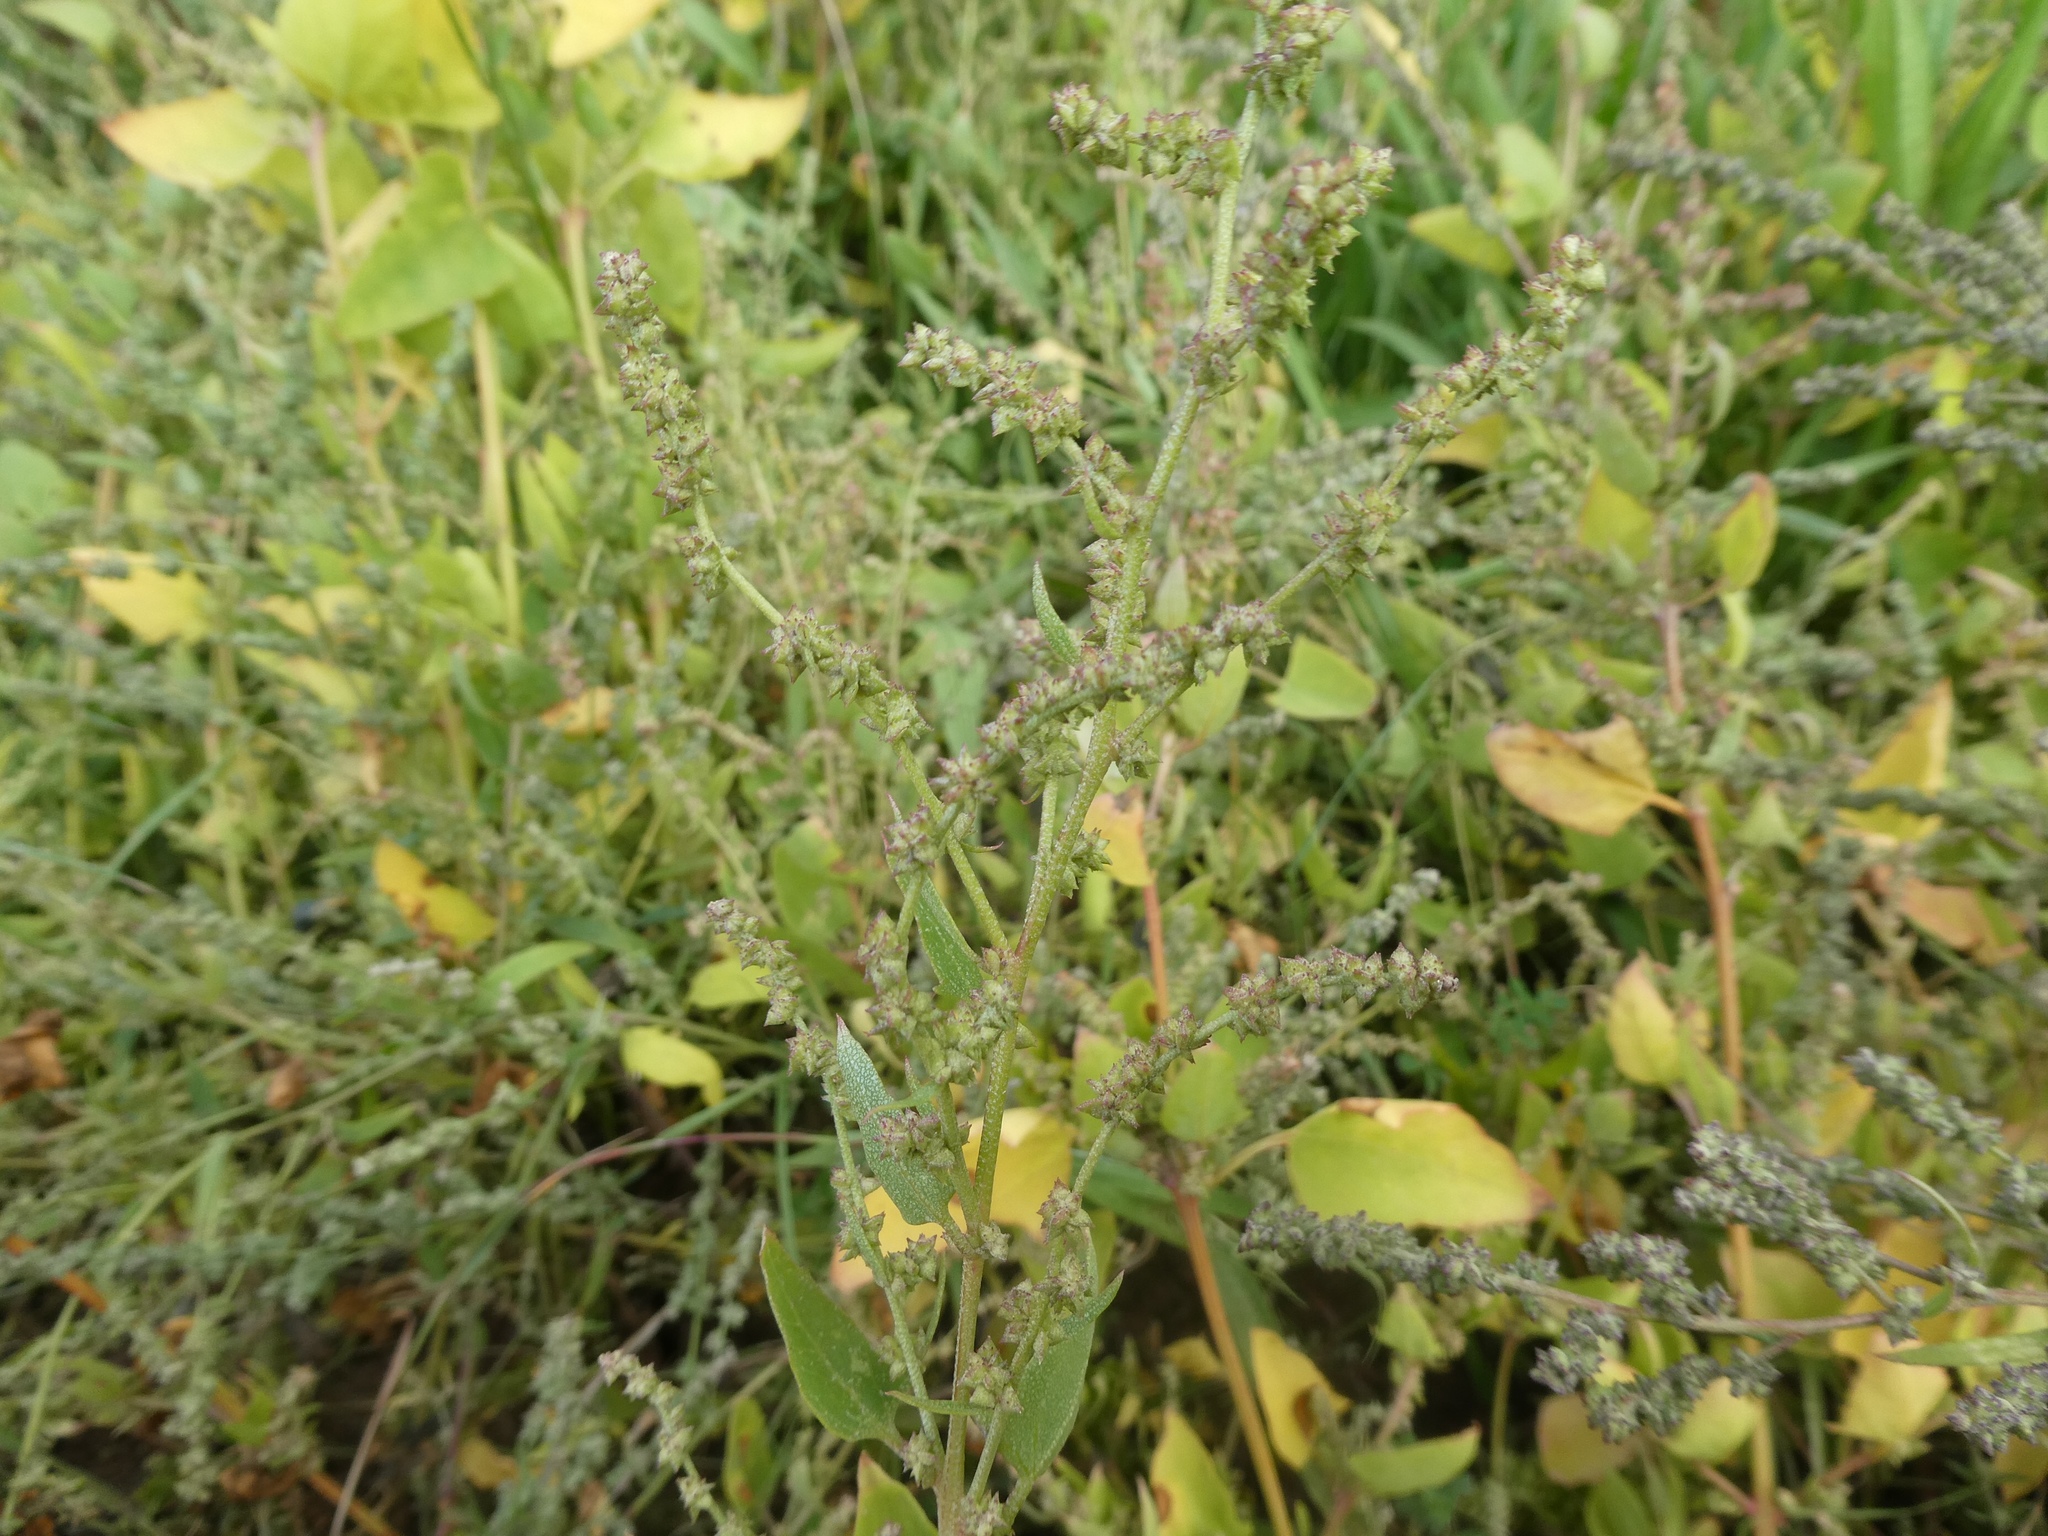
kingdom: Plantae
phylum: Tracheophyta
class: Magnoliopsida
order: Caryophyllales
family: Amaranthaceae
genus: Atriplex
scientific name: Atriplex prostrata
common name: Spear-leaved orache
